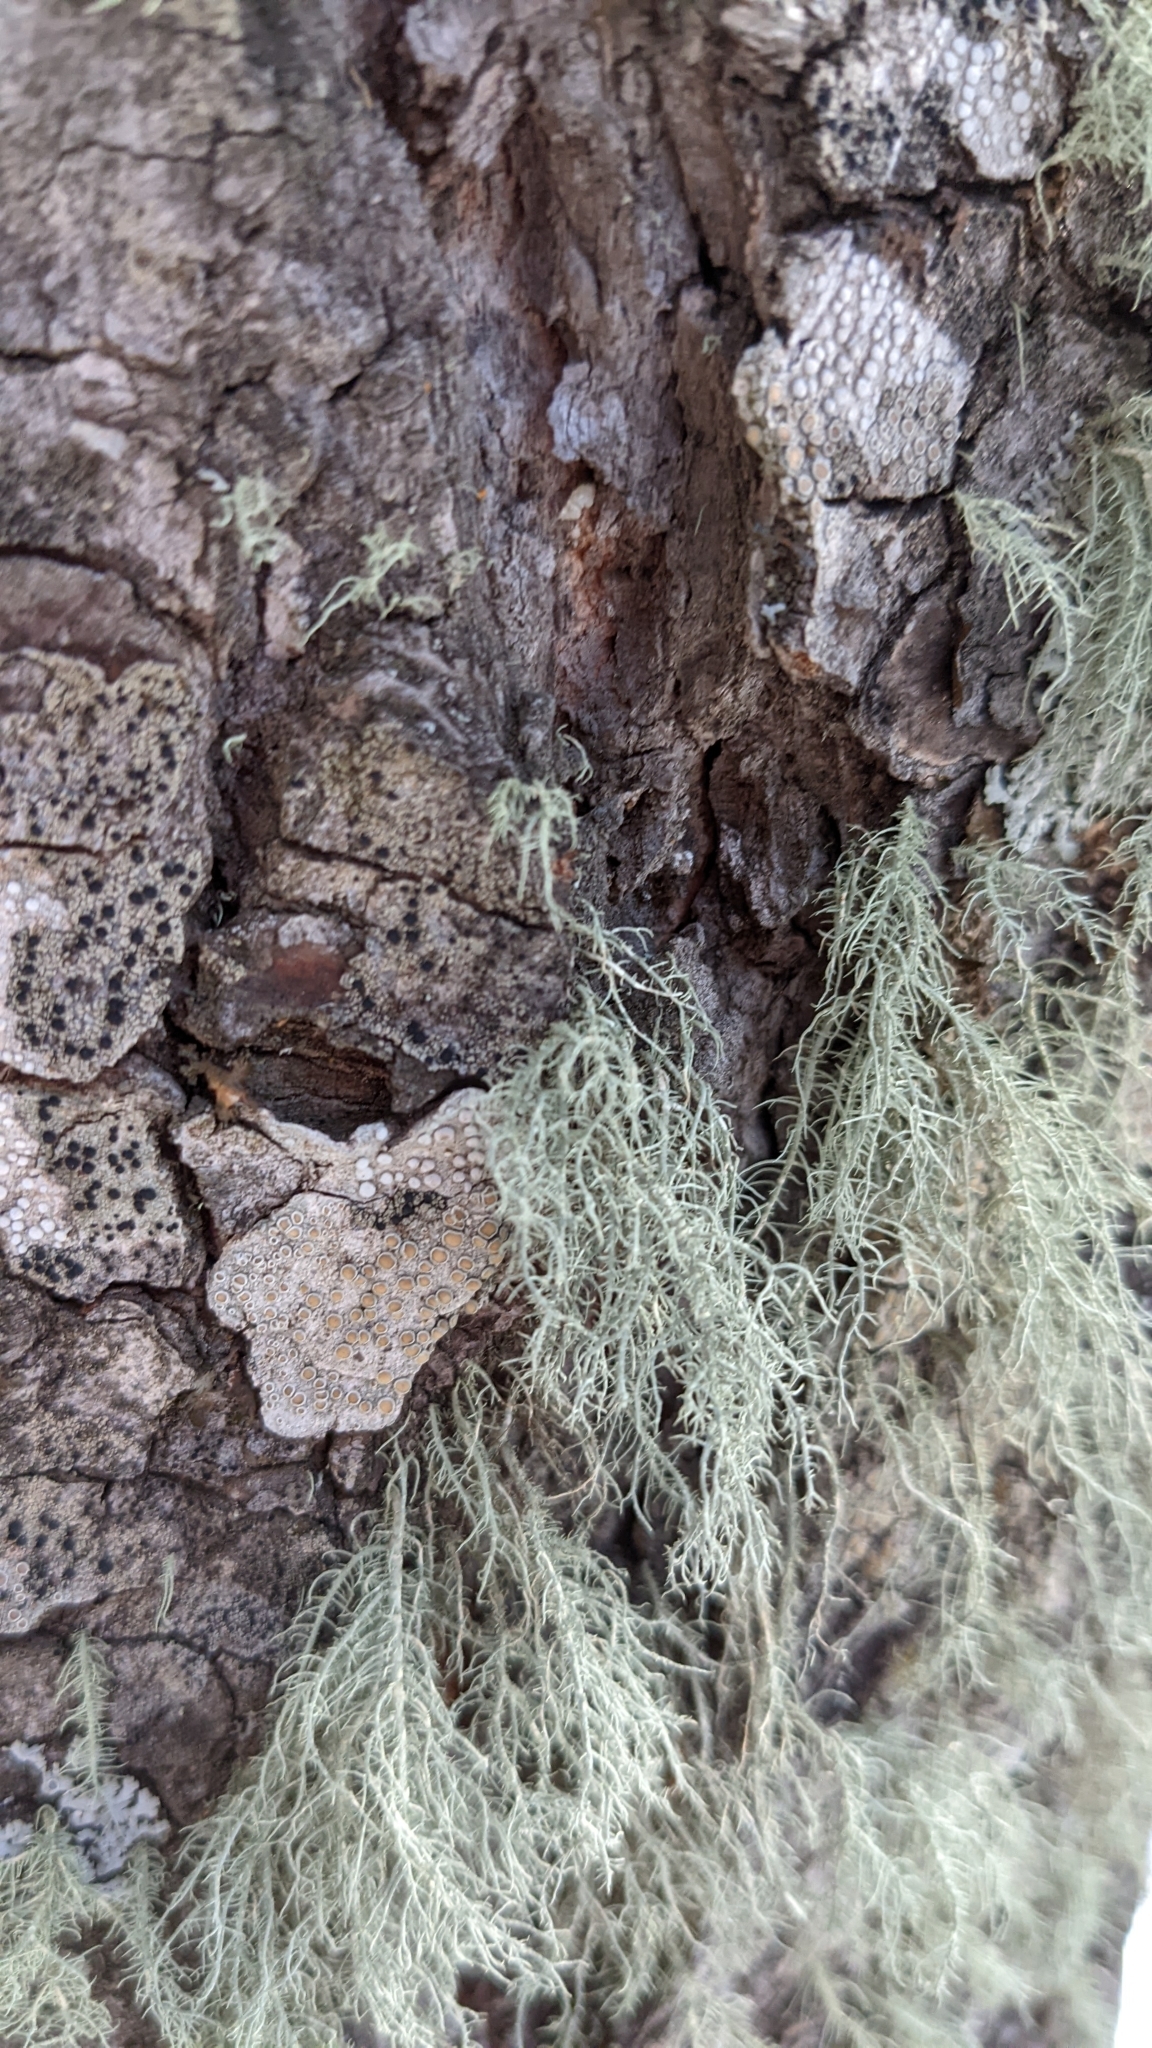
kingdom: Fungi
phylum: Ascomycota
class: Lecanoromycetes
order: Lecanorales
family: Parmeliaceae
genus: Usnea
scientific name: Usnea hirta
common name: Bristly beard lichen
